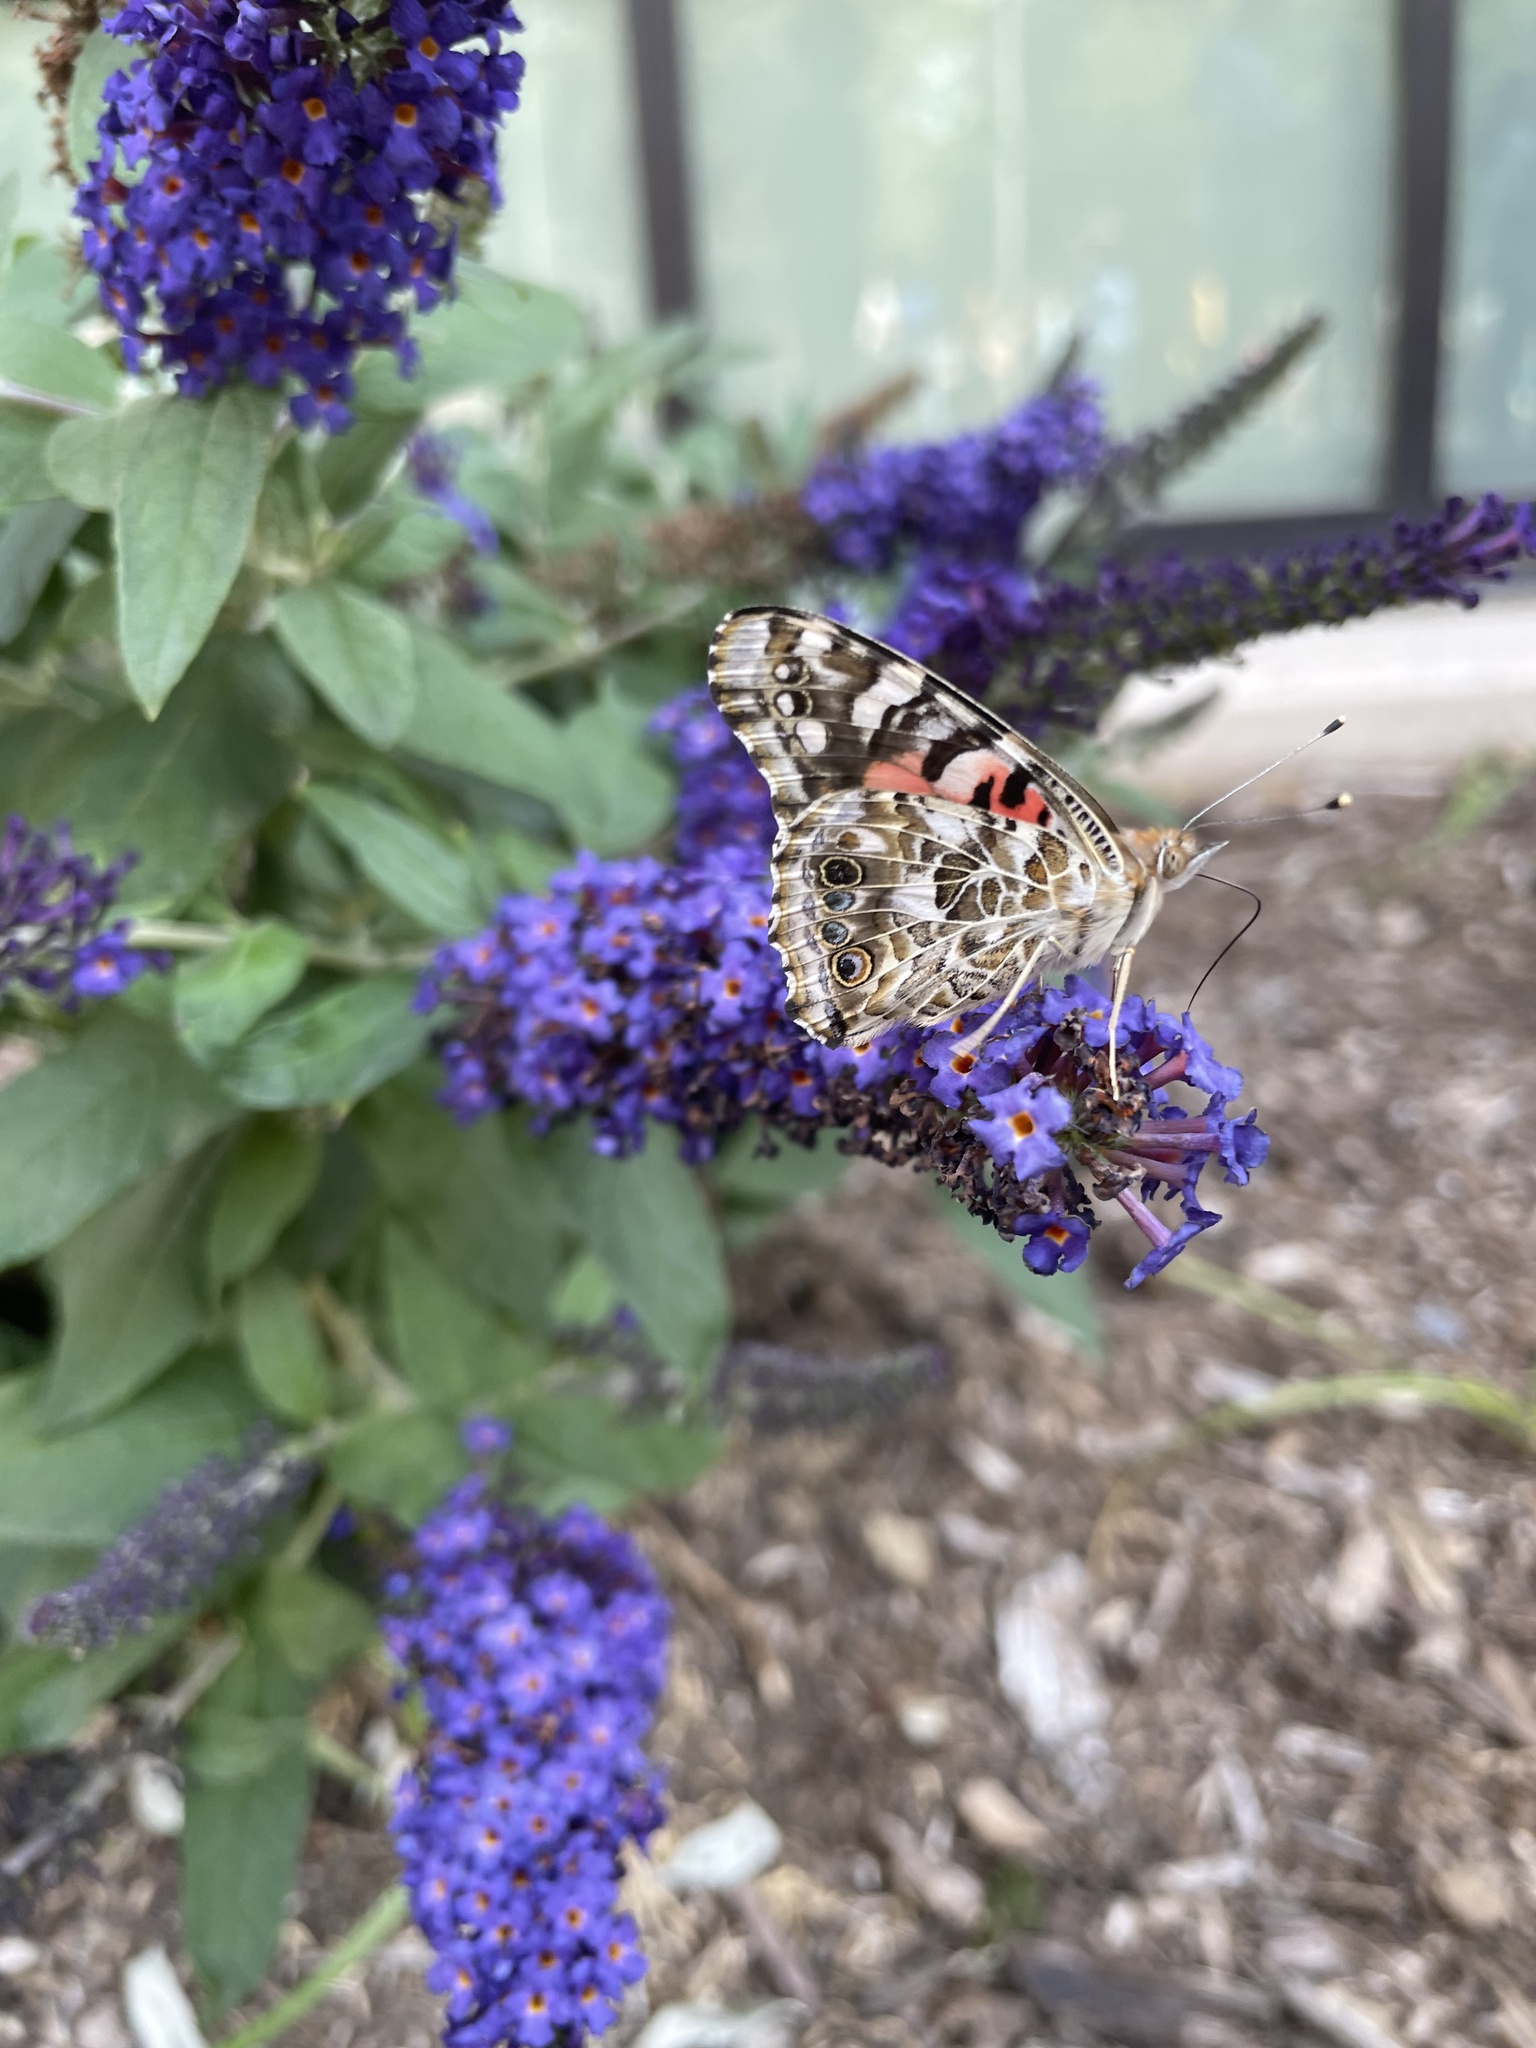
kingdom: Animalia
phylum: Arthropoda
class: Insecta
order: Lepidoptera
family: Nymphalidae
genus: Vanessa
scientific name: Vanessa cardui
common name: Painted lady
